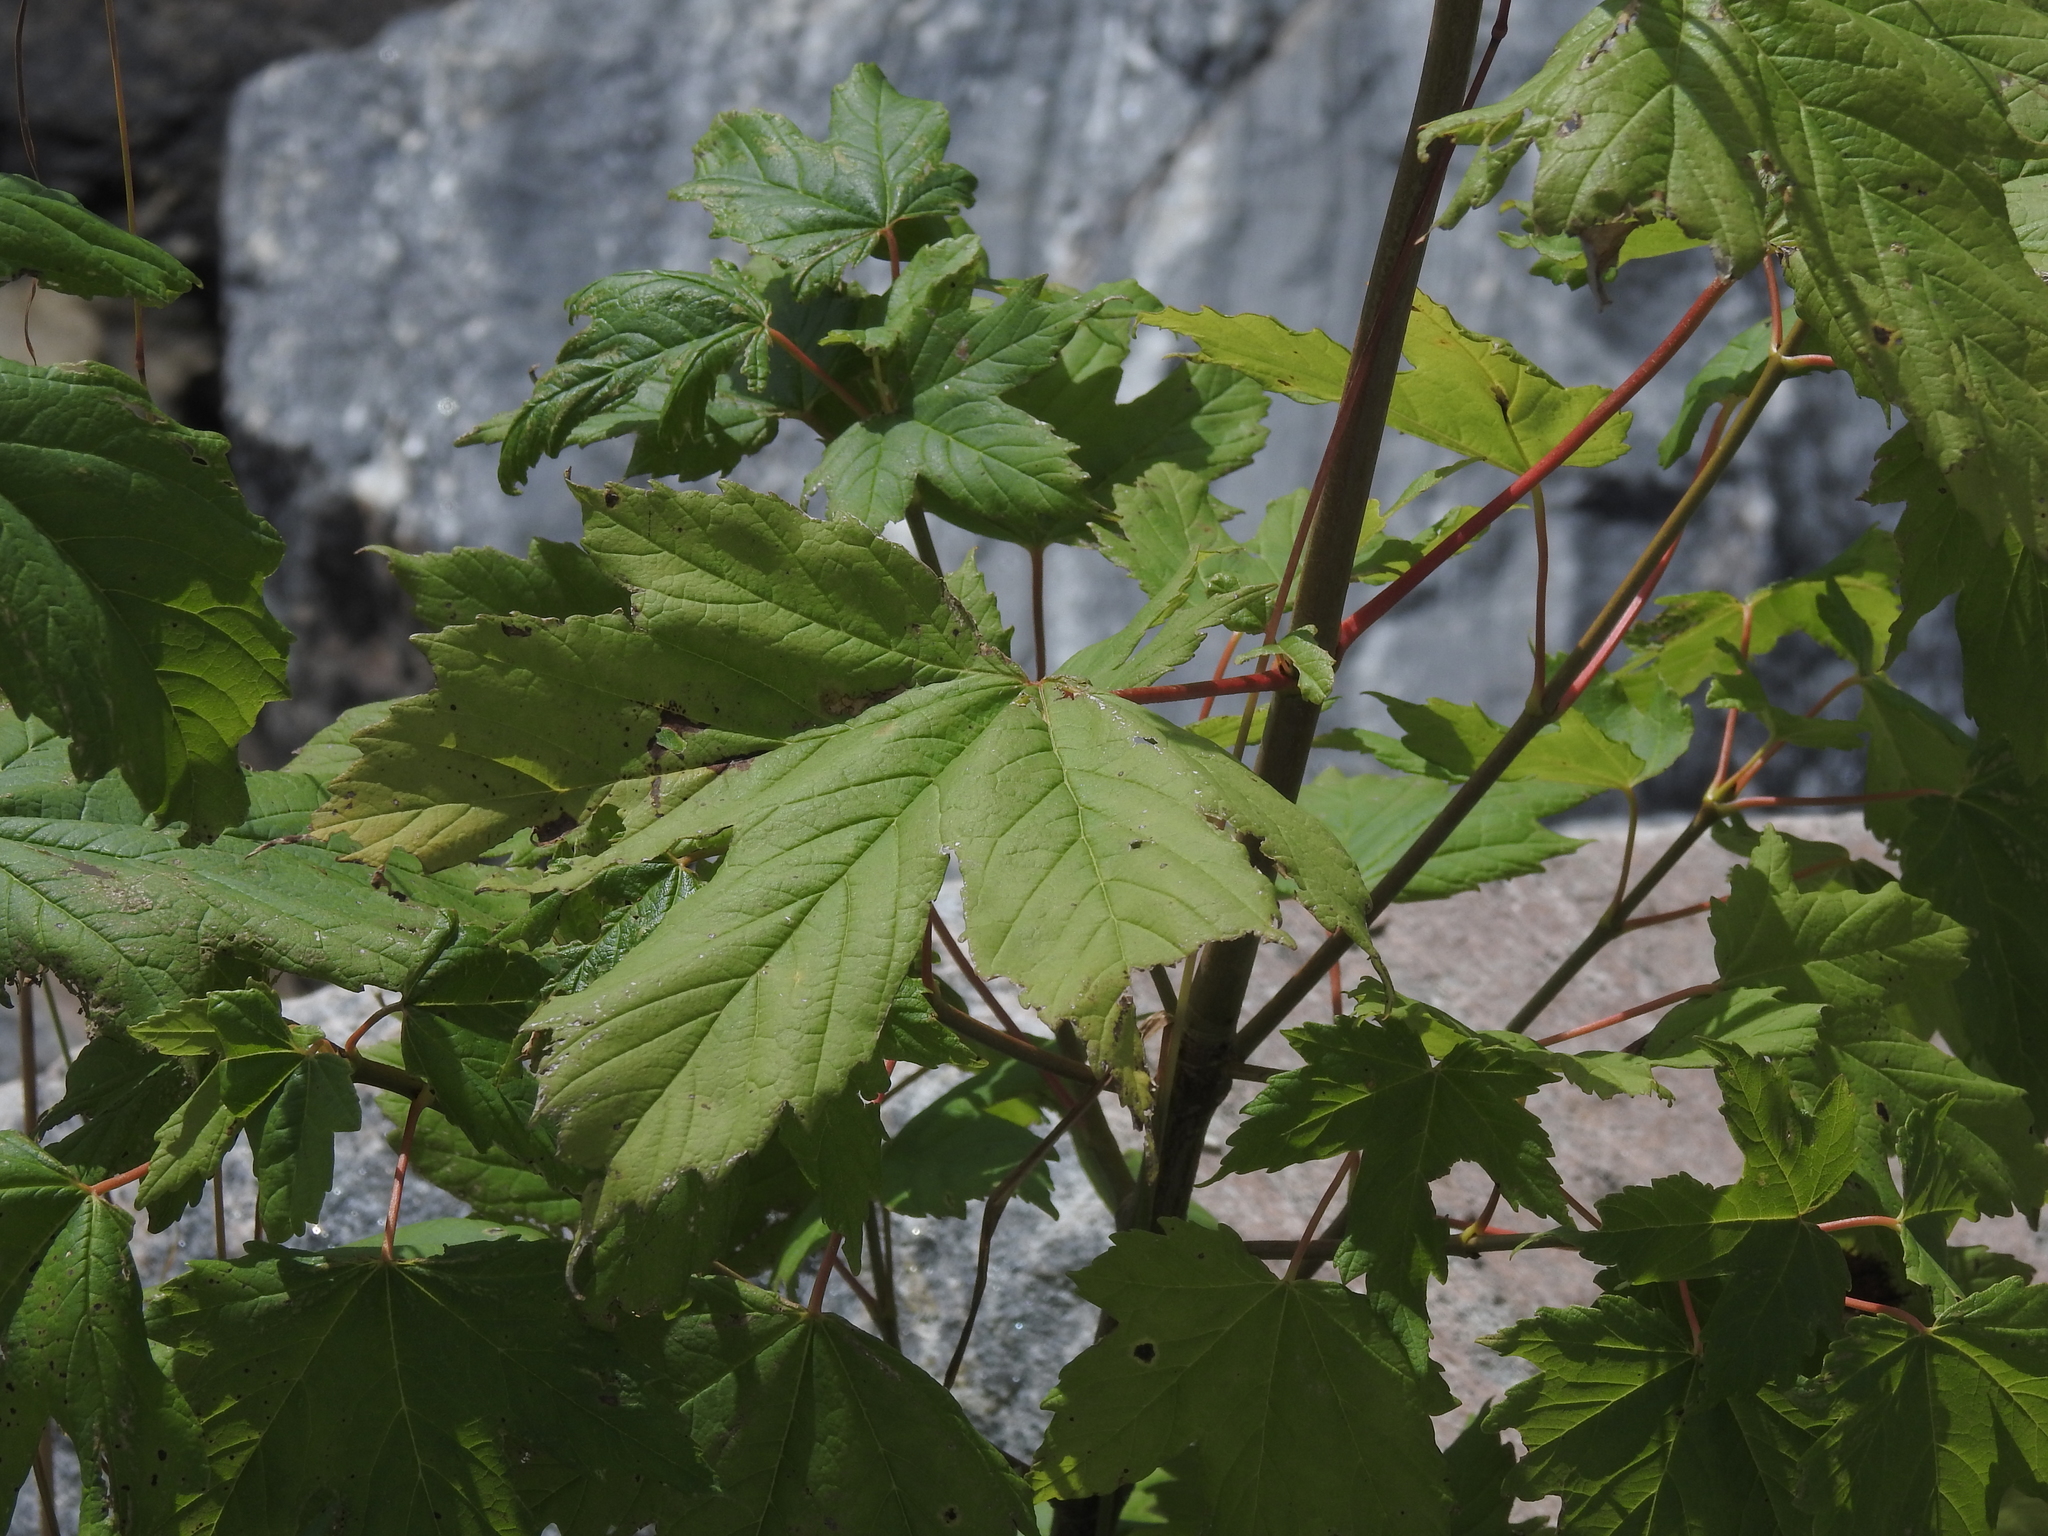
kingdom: Plantae
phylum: Tracheophyta
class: Magnoliopsida
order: Sapindales
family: Sapindaceae
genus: Acer
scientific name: Acer pseudoplatanus
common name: Sycamore
